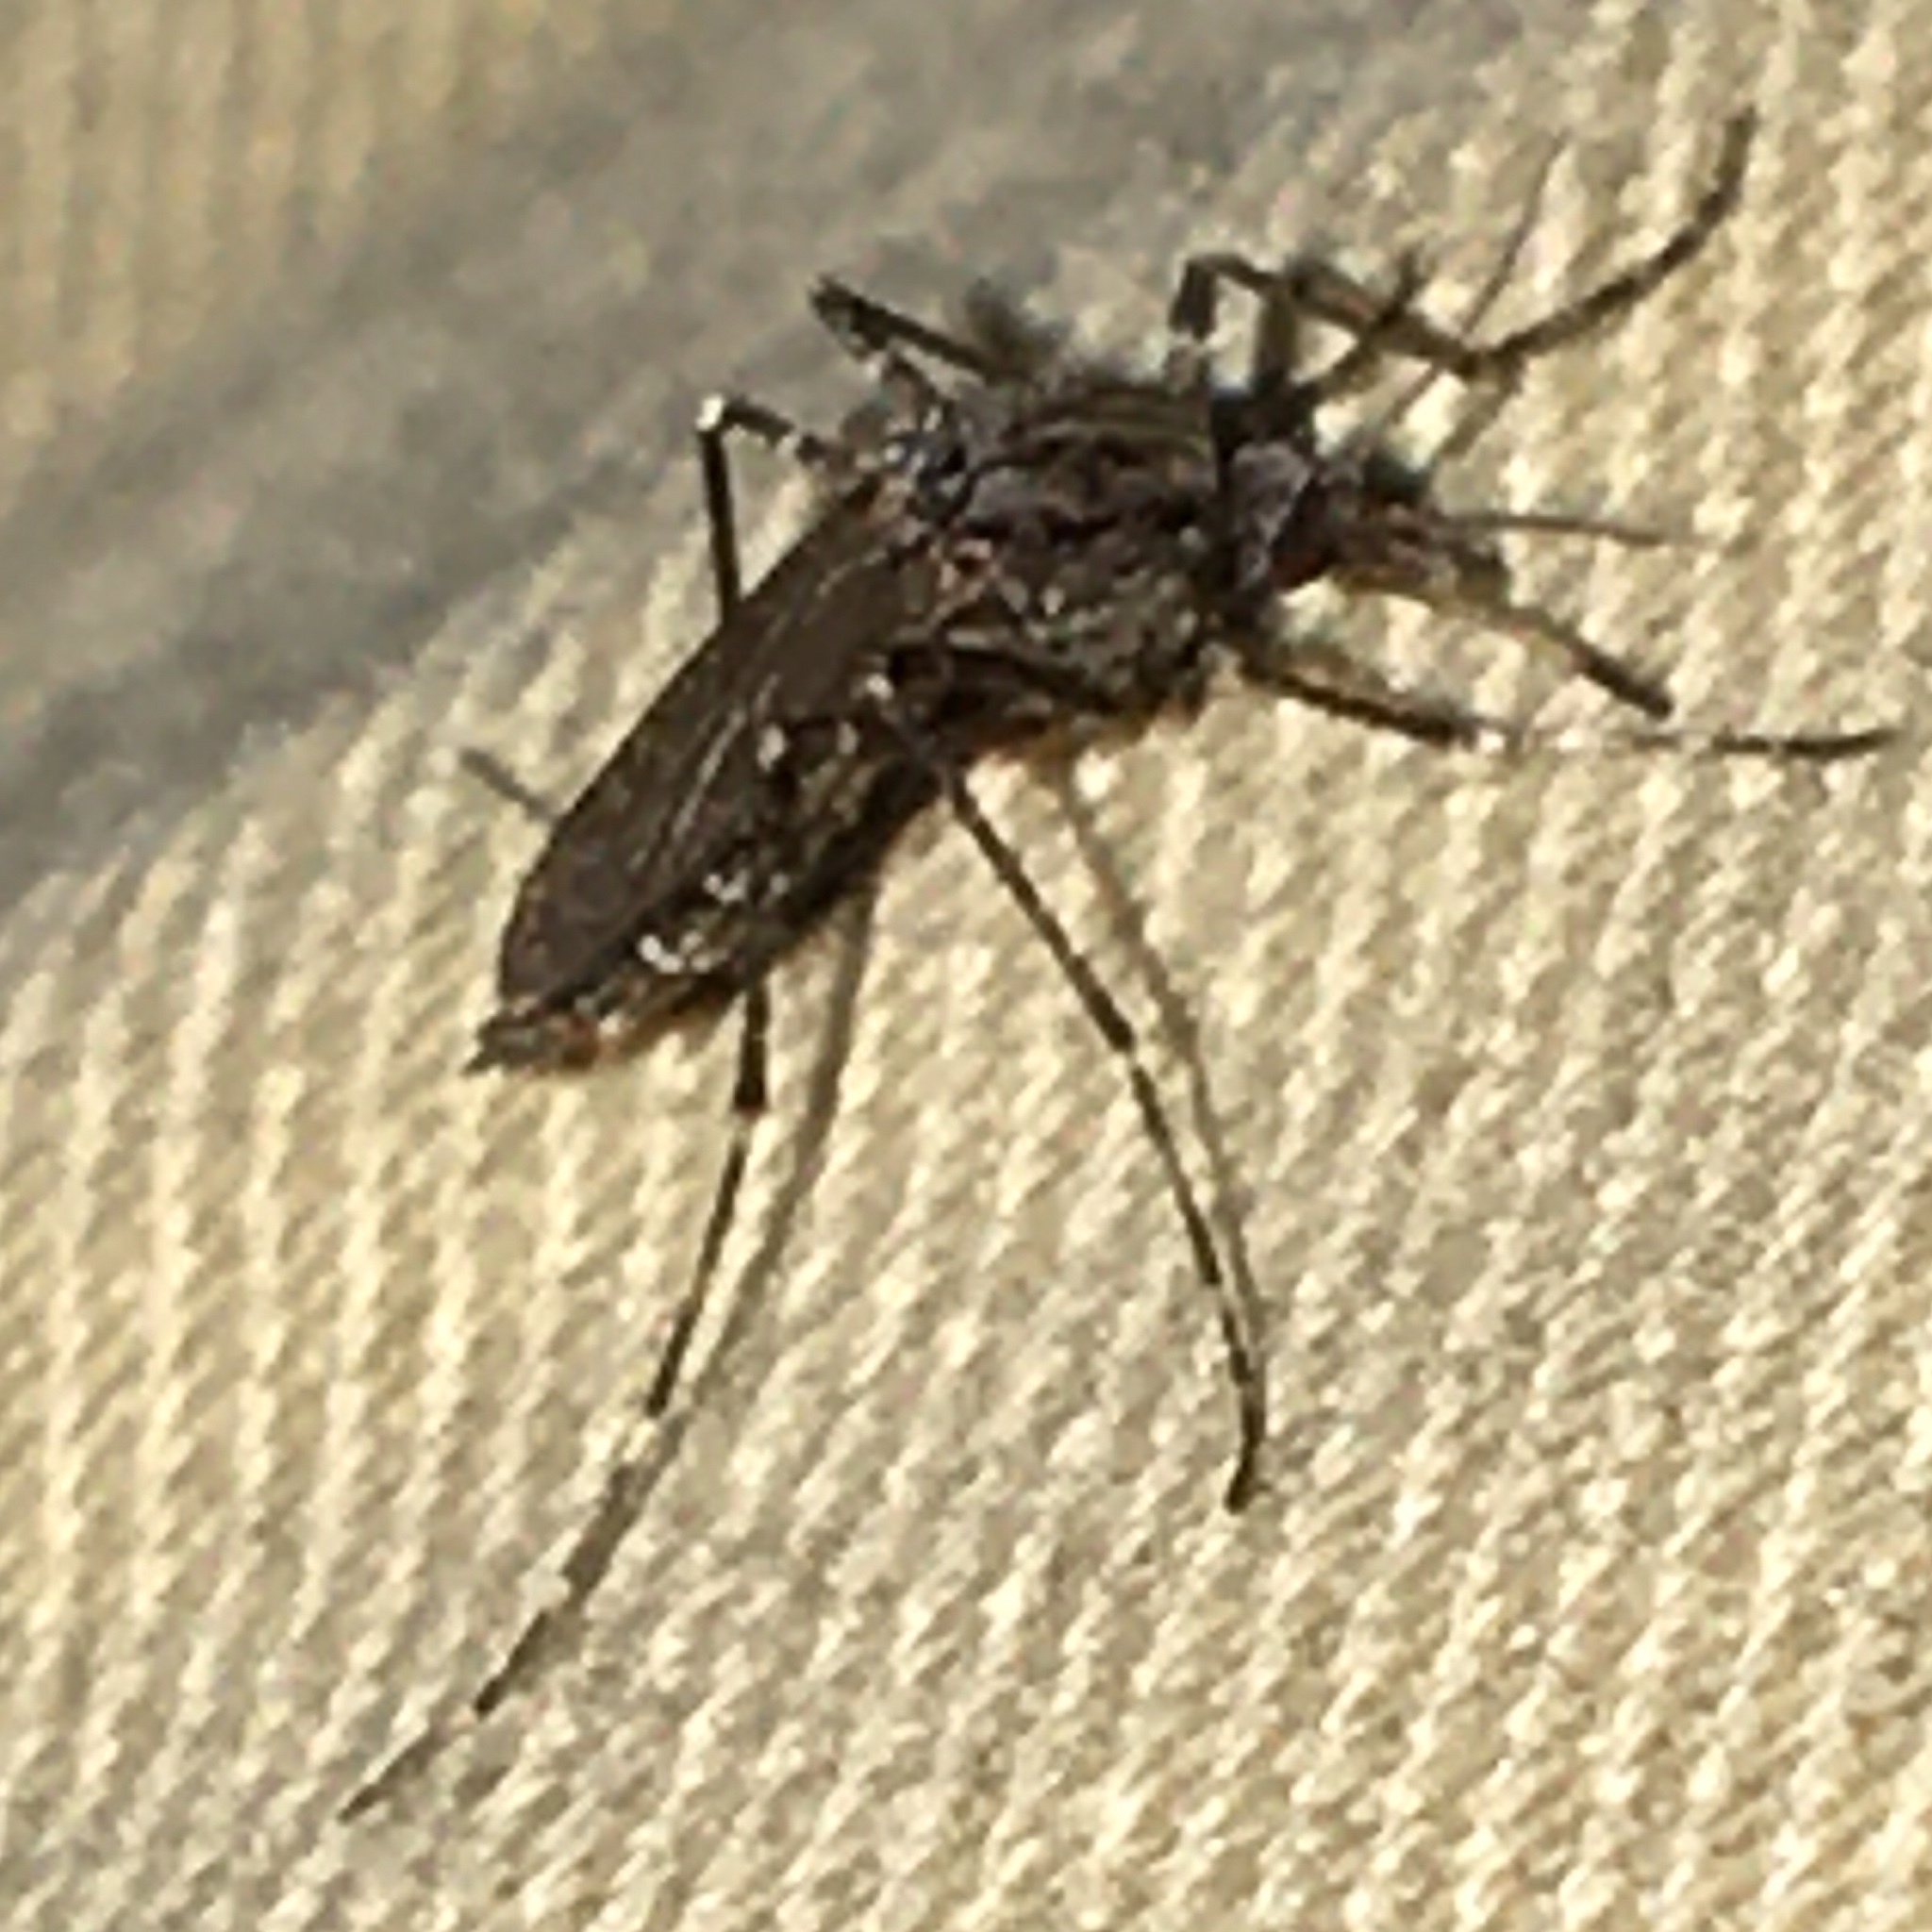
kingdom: Animalia
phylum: Arthropoda
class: Insecta
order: Diptera
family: Culicidae
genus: Psorophora
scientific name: Psorophora columbiae
